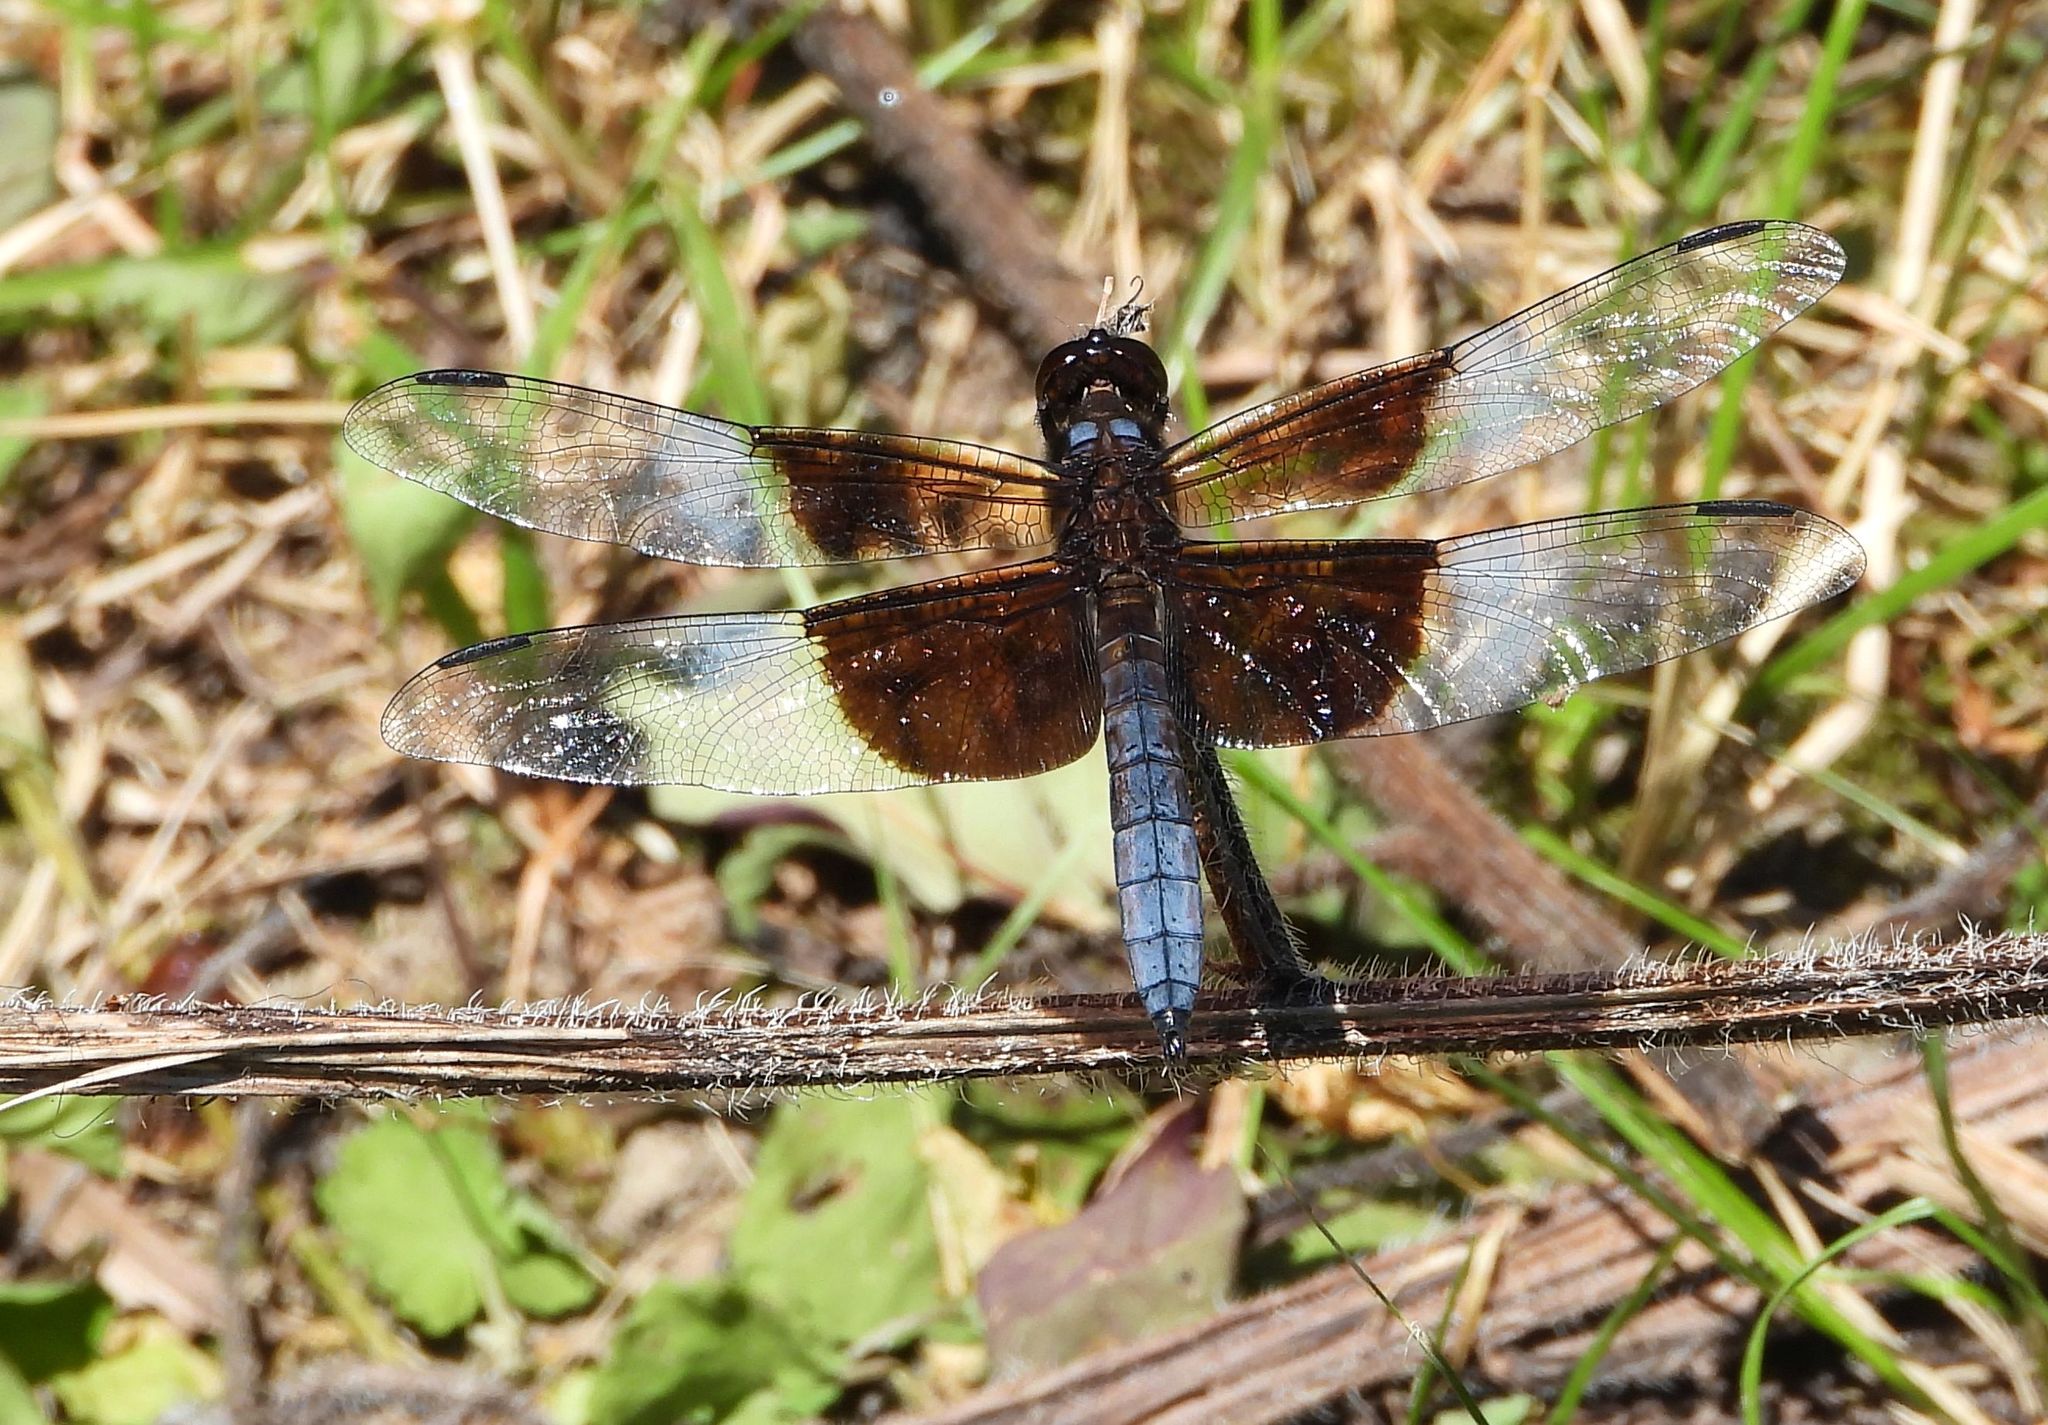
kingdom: Animalia
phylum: Arthropoda
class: Insecta
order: Odonata
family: Libellulidae
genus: Libellula
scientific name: Libellula luctuosa
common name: Widow skimmer
